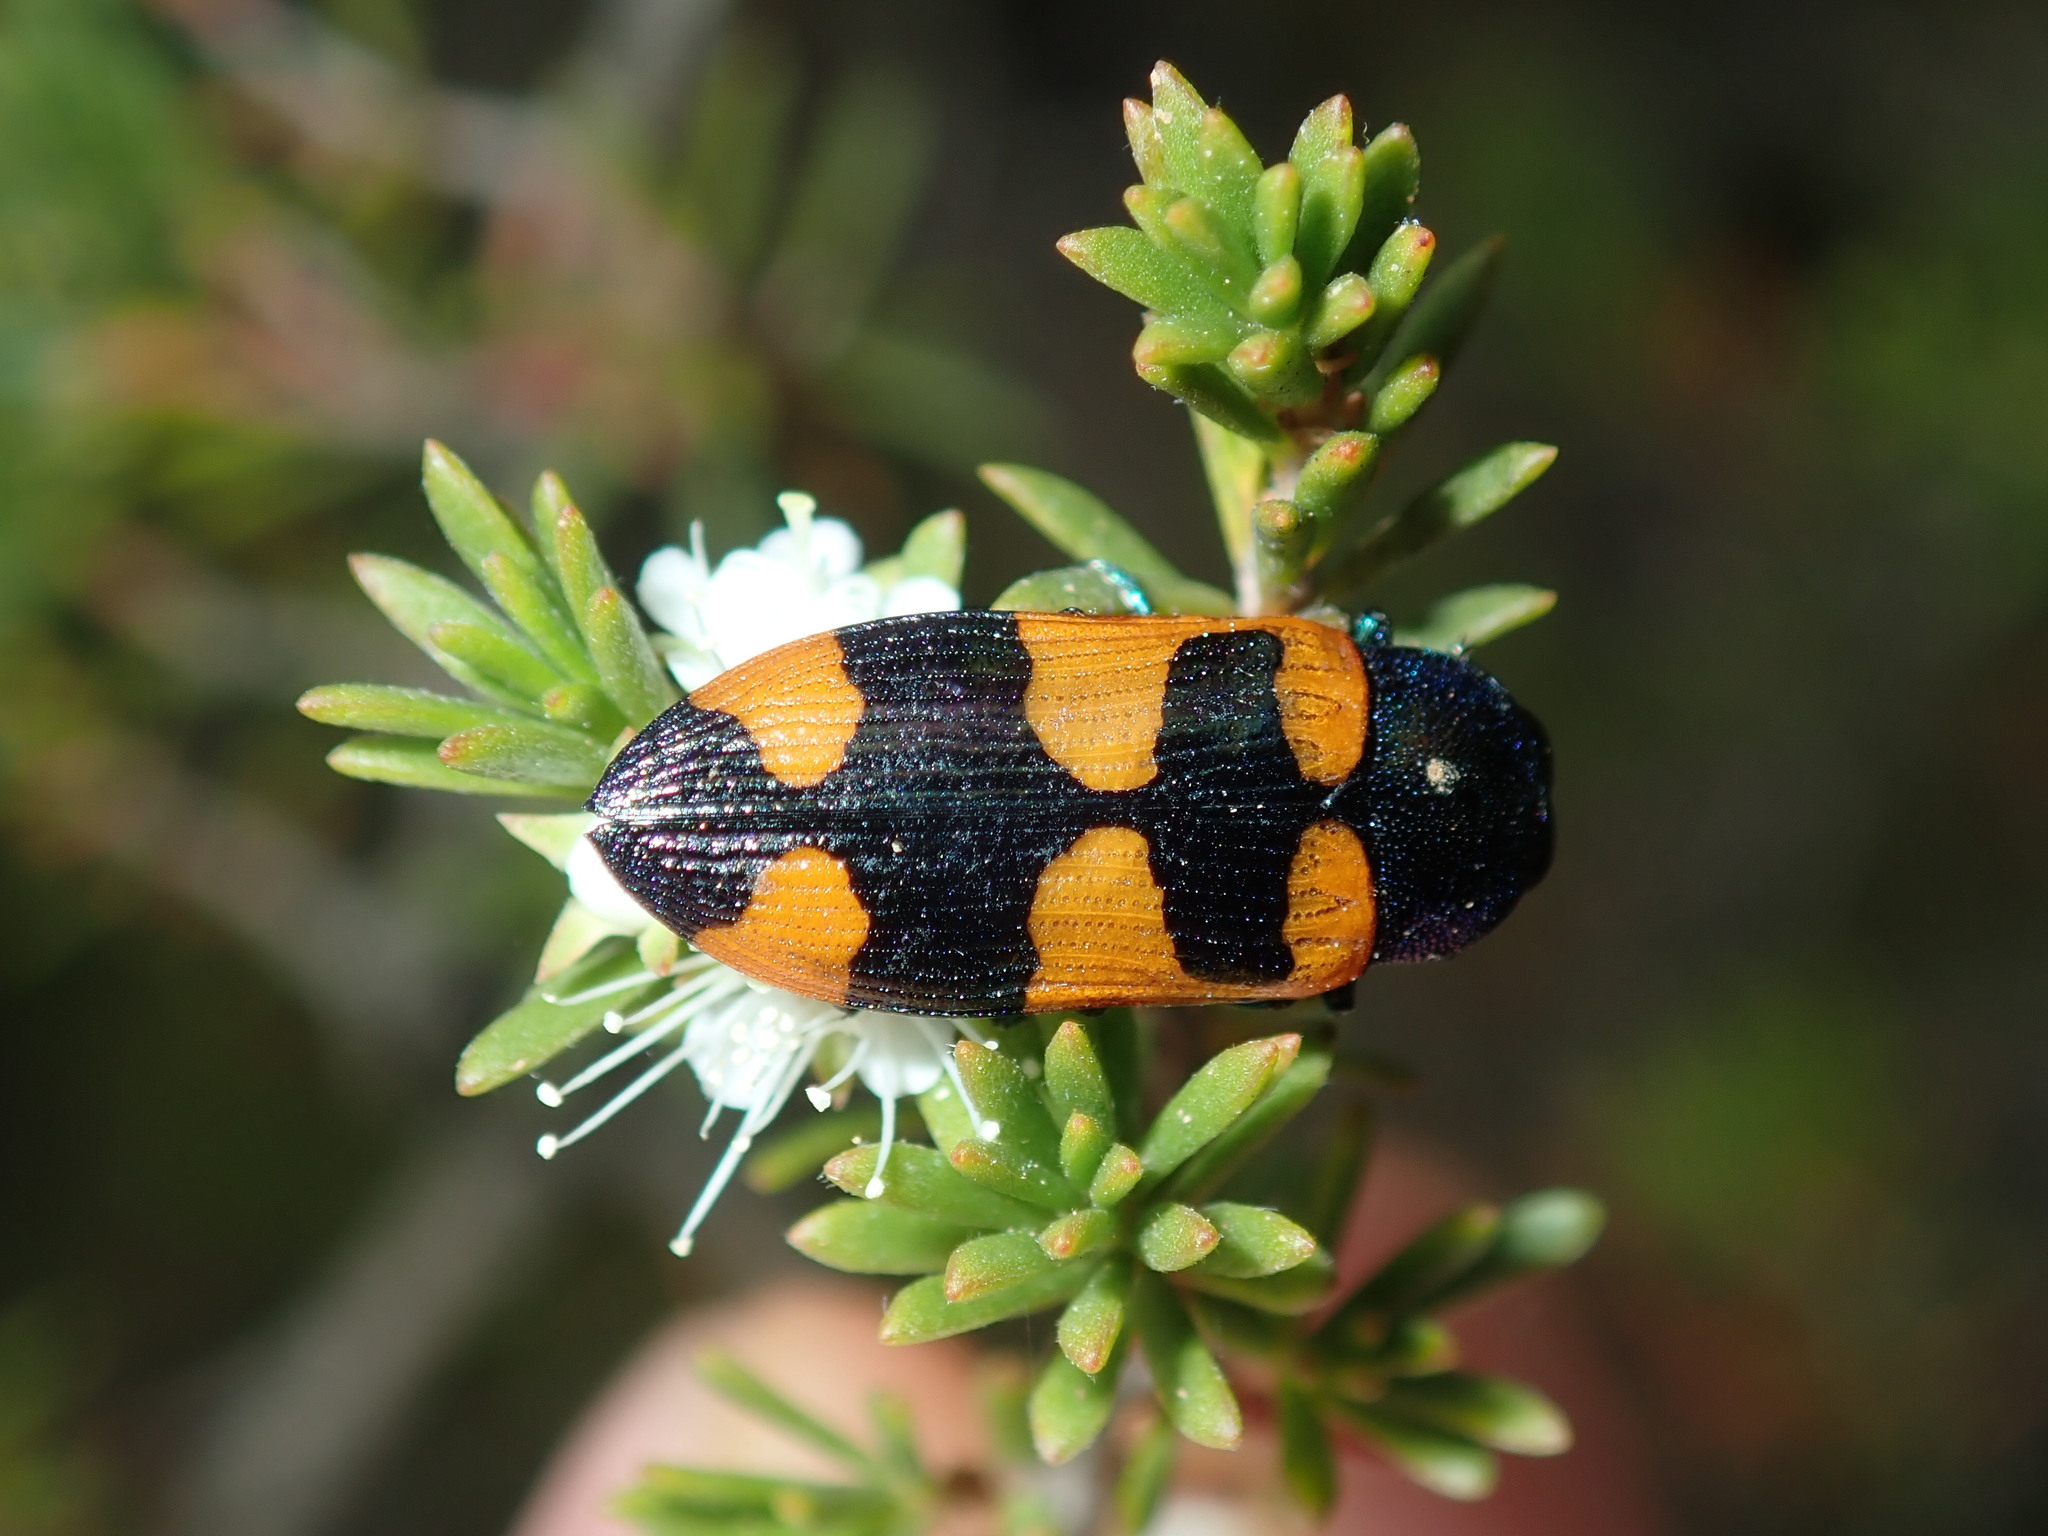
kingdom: Animalia
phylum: Arthropoda
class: Insecta
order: Coleoptera
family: Buprestidae
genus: Castiarina
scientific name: Castiarina kirbyi
